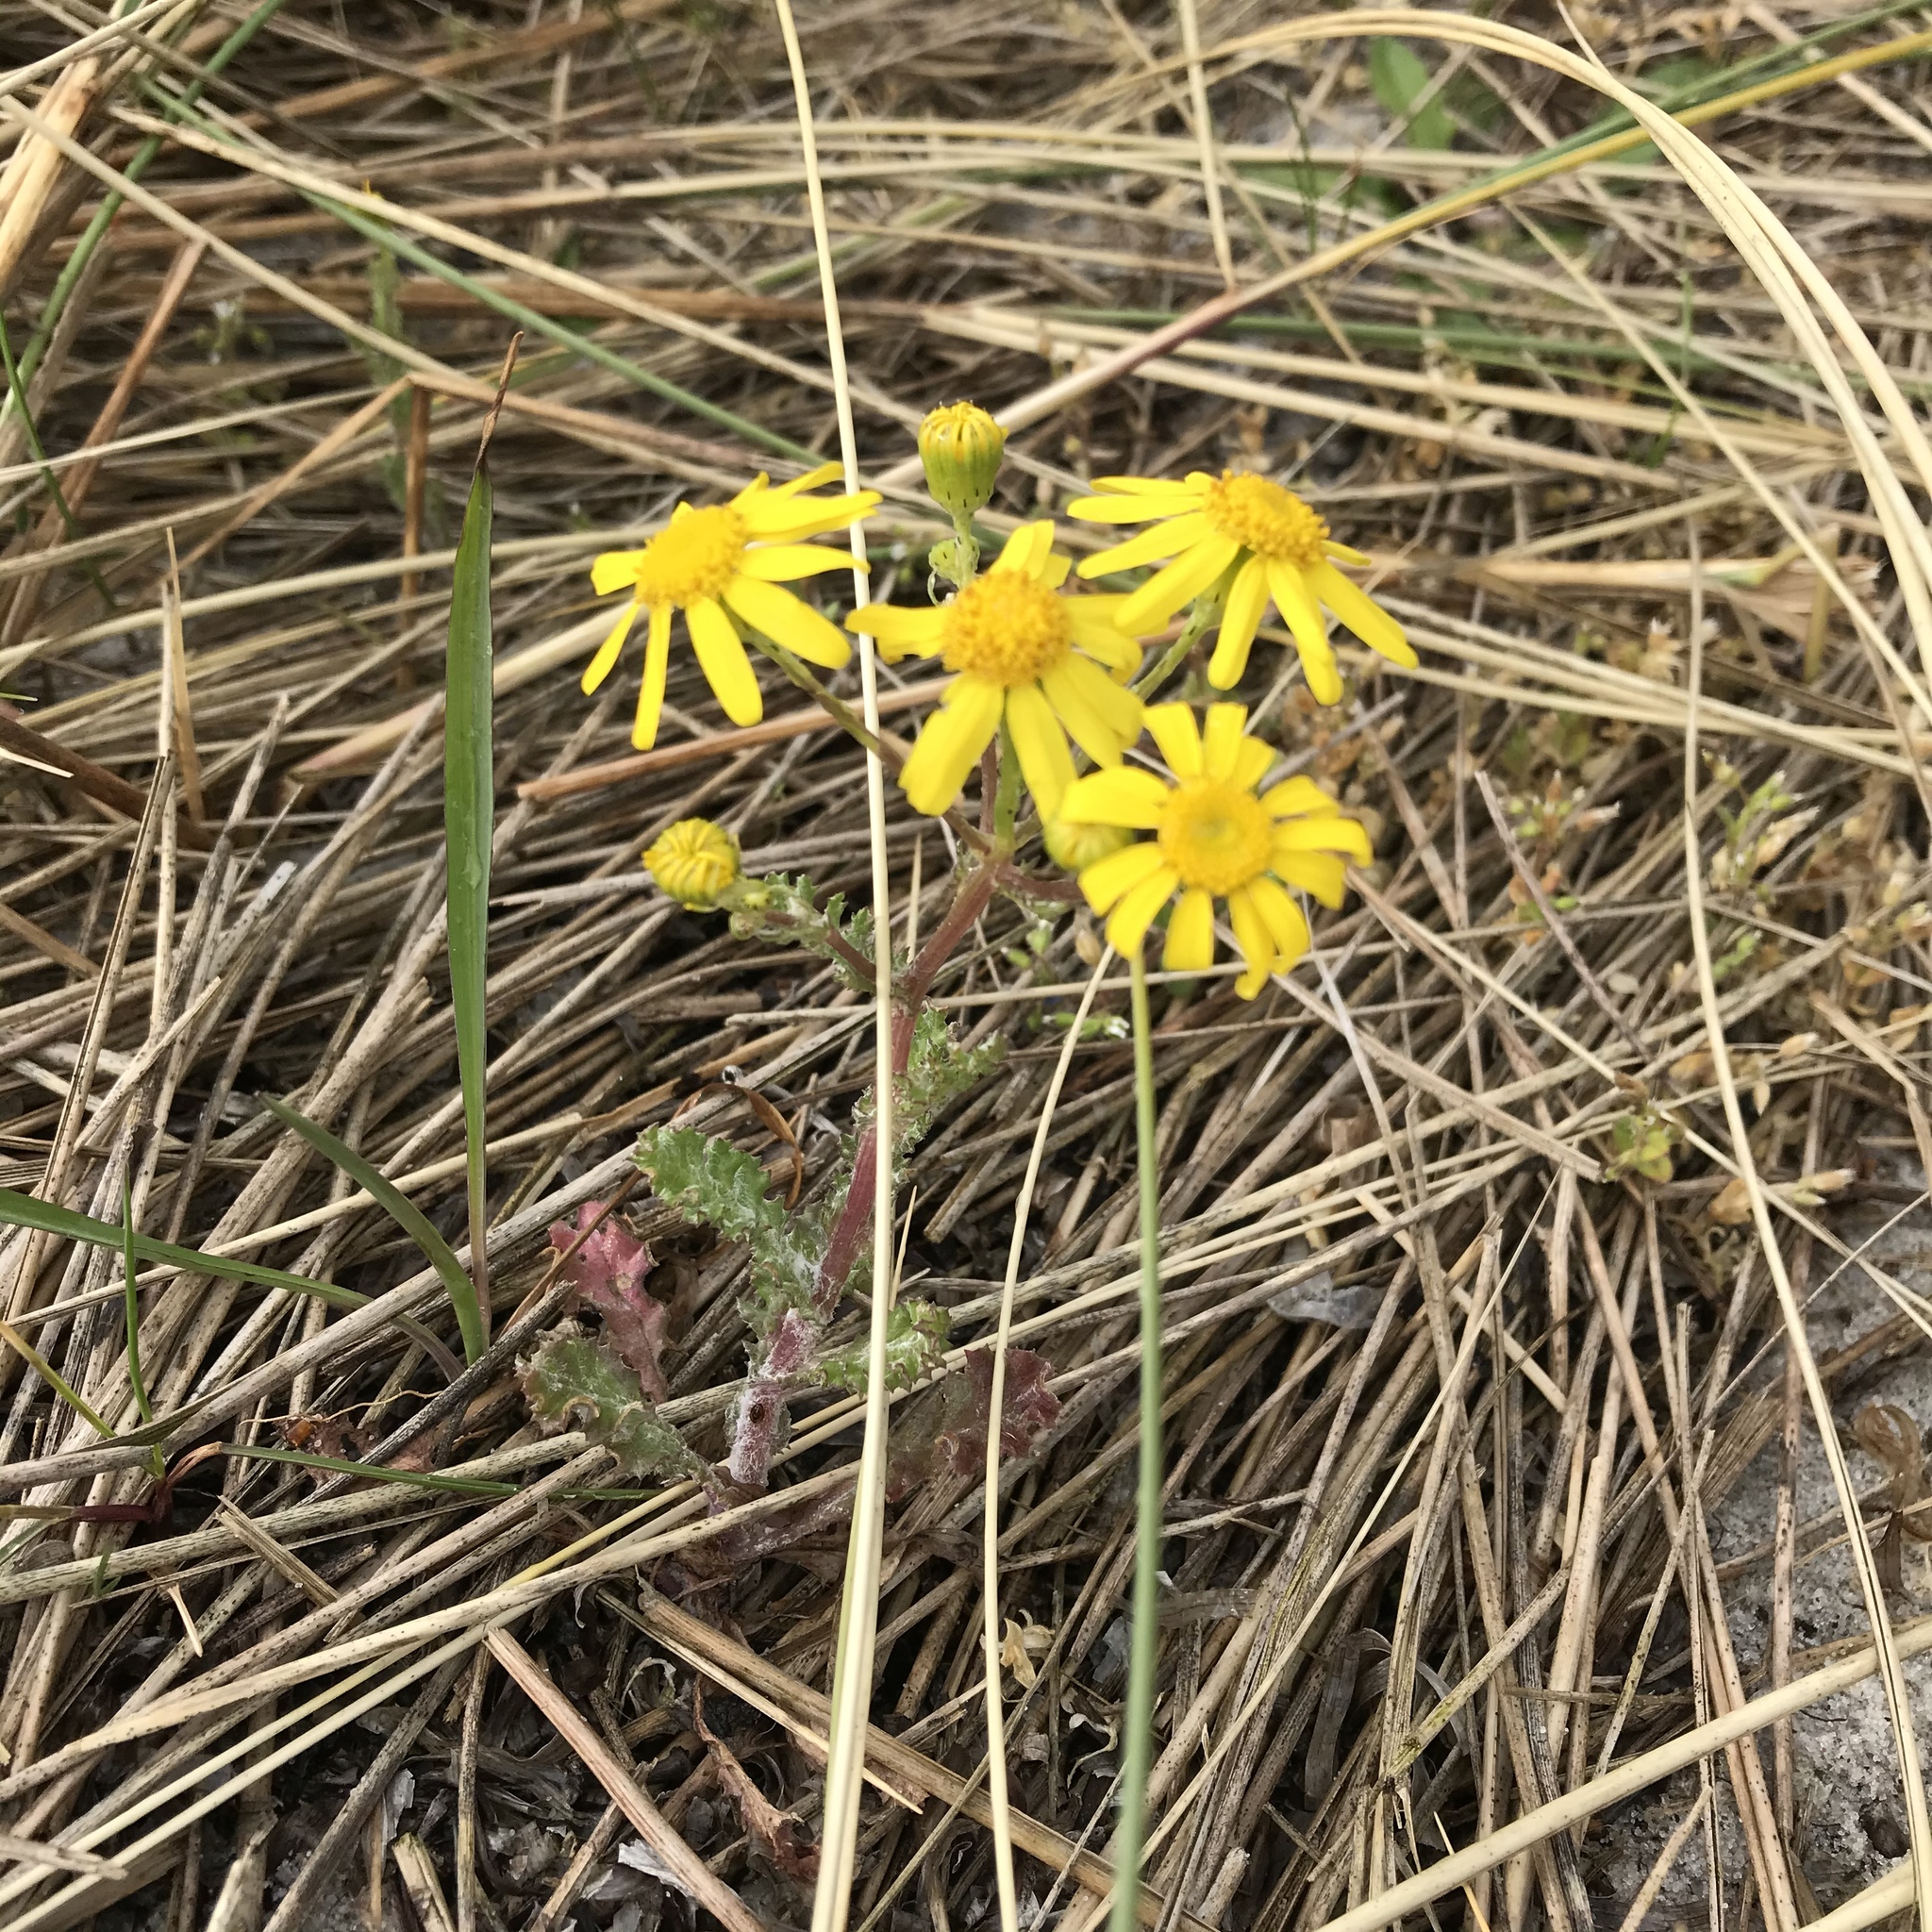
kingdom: Plantae
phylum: Tracheophyta
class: Magnoliopsida
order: Asterales
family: Asteraceae
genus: Senecio
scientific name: Senecio vernalis
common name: Eastern groundsel
